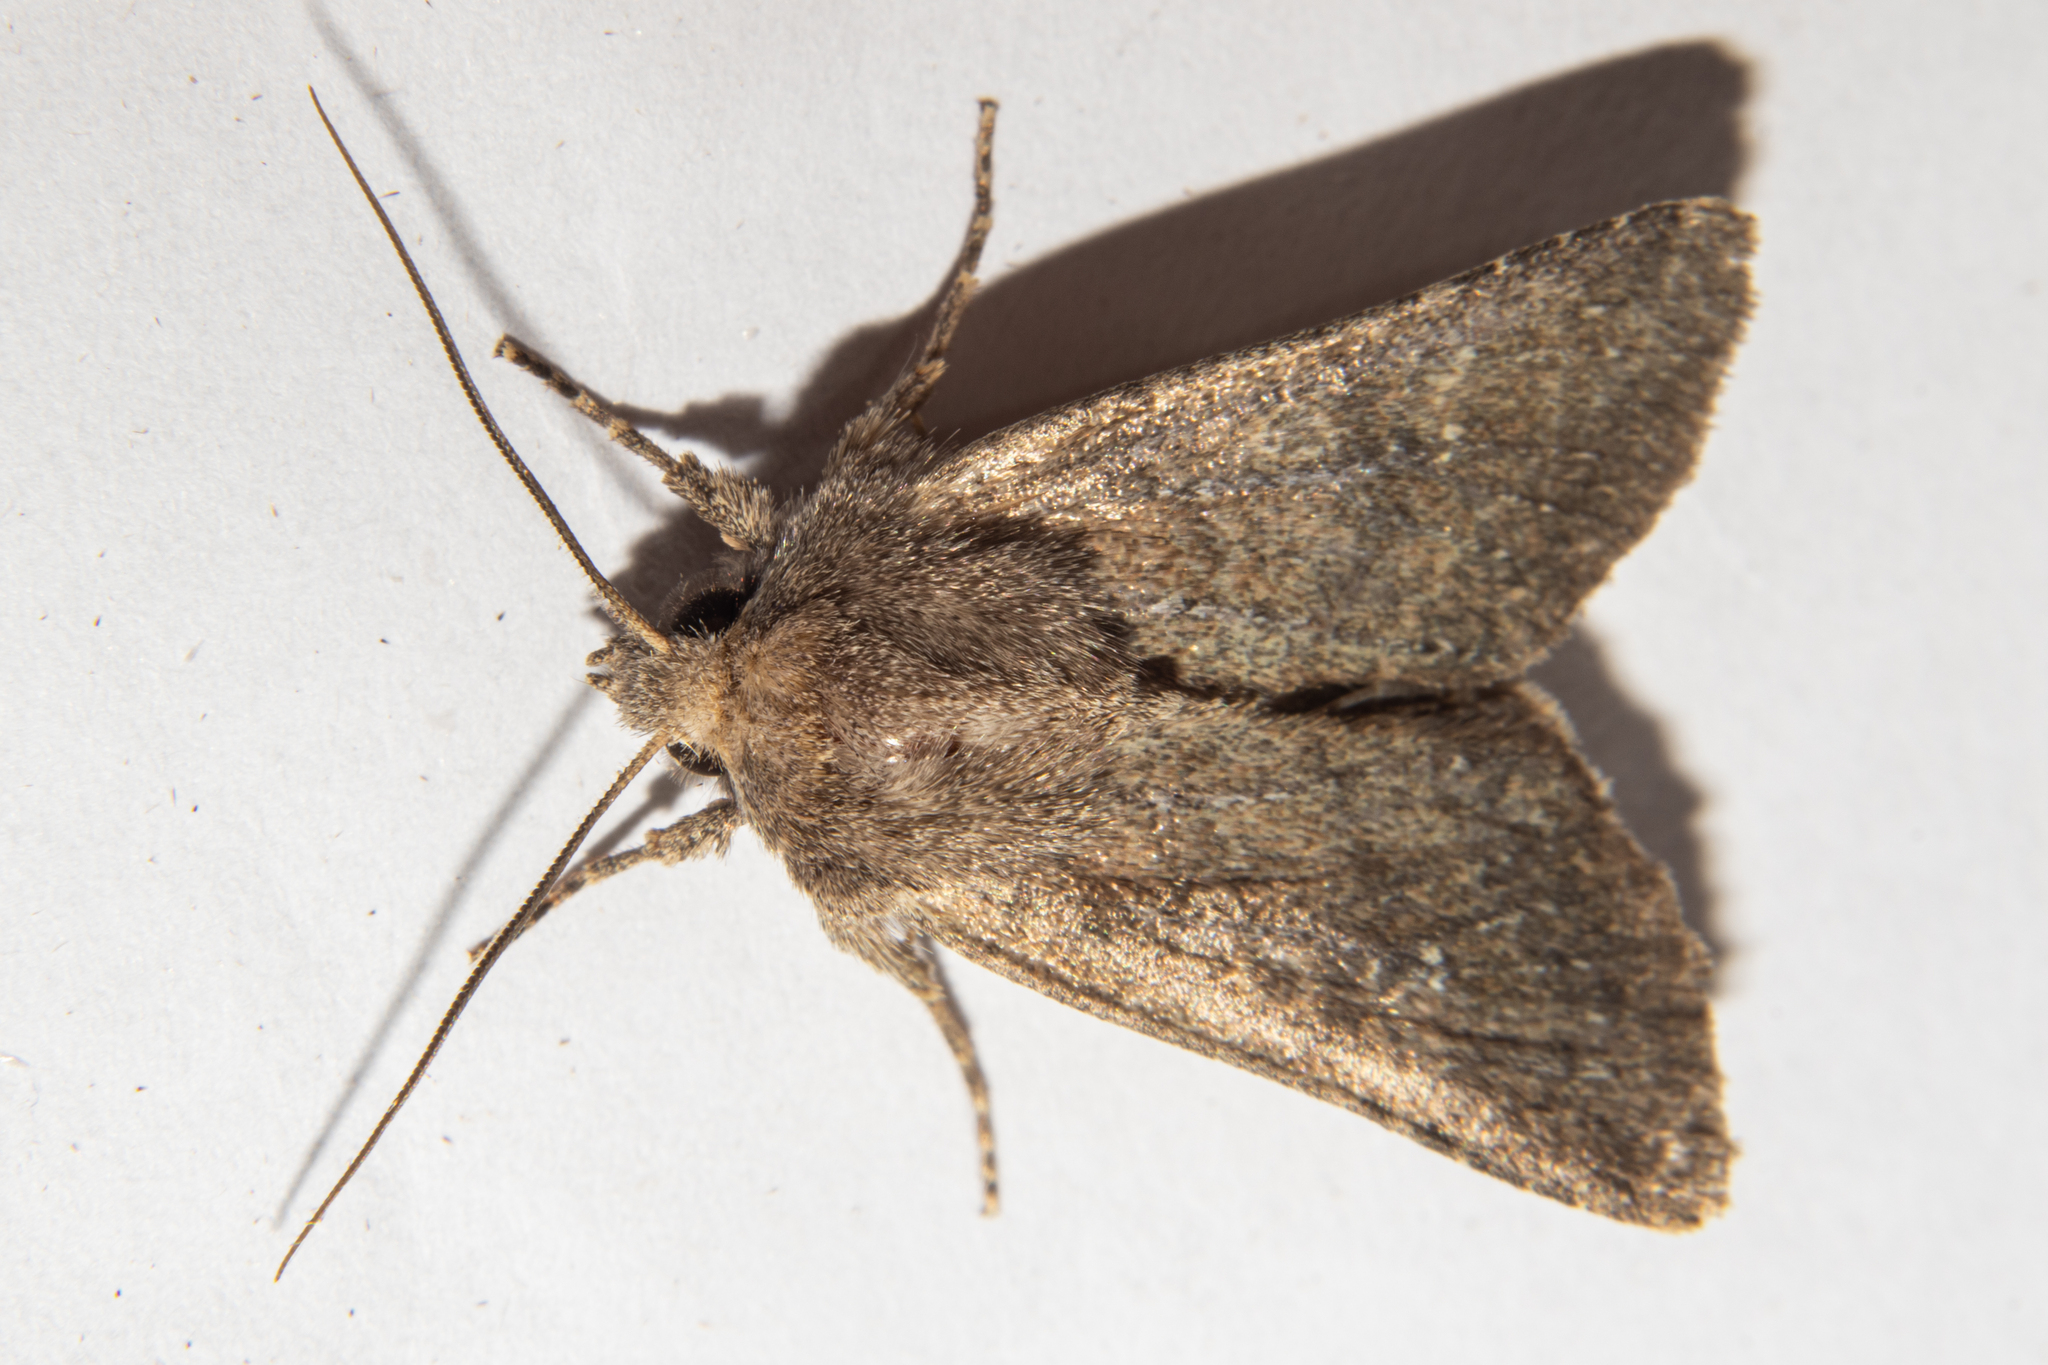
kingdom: Animalia
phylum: Arthropoda
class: Insecta
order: Lepidoptera
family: Noctuidae
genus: Physetica
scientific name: Physetica
